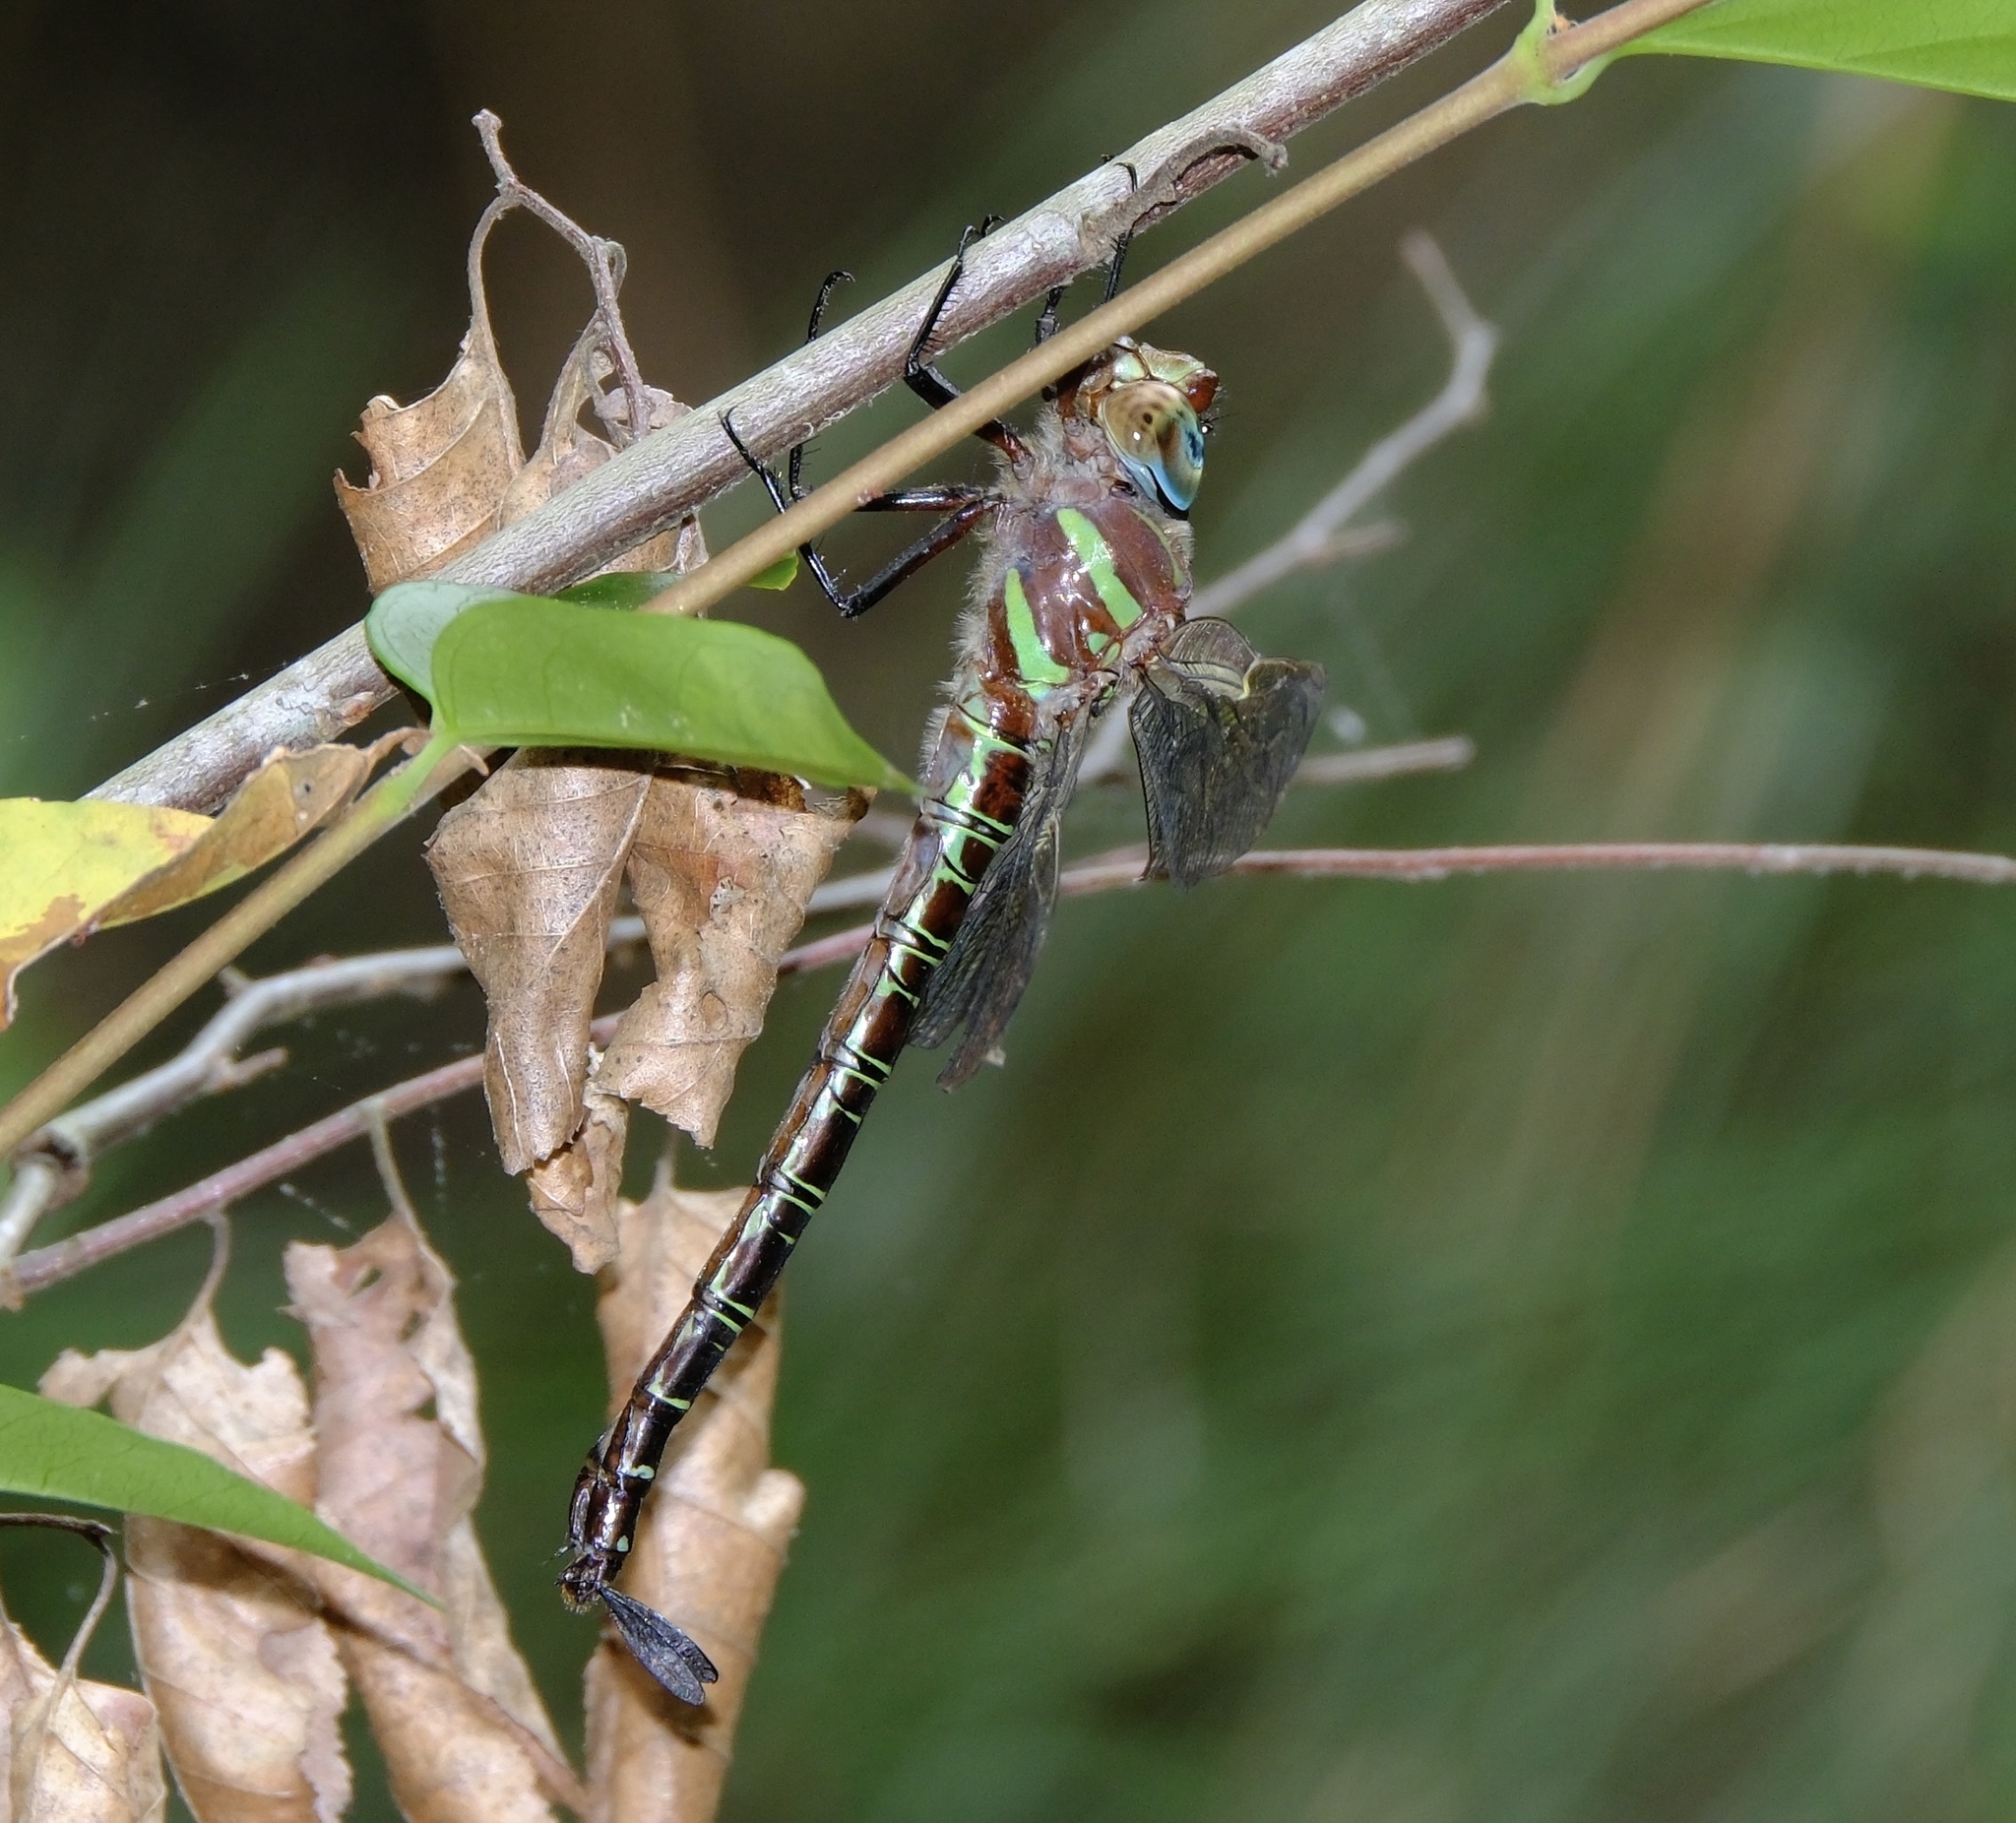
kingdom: Animalia
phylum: Arthropoda
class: Insecta
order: Odonata
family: Aeshnidae
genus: Epiaeschna
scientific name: Epiaeschna heros
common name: Swamp darner
